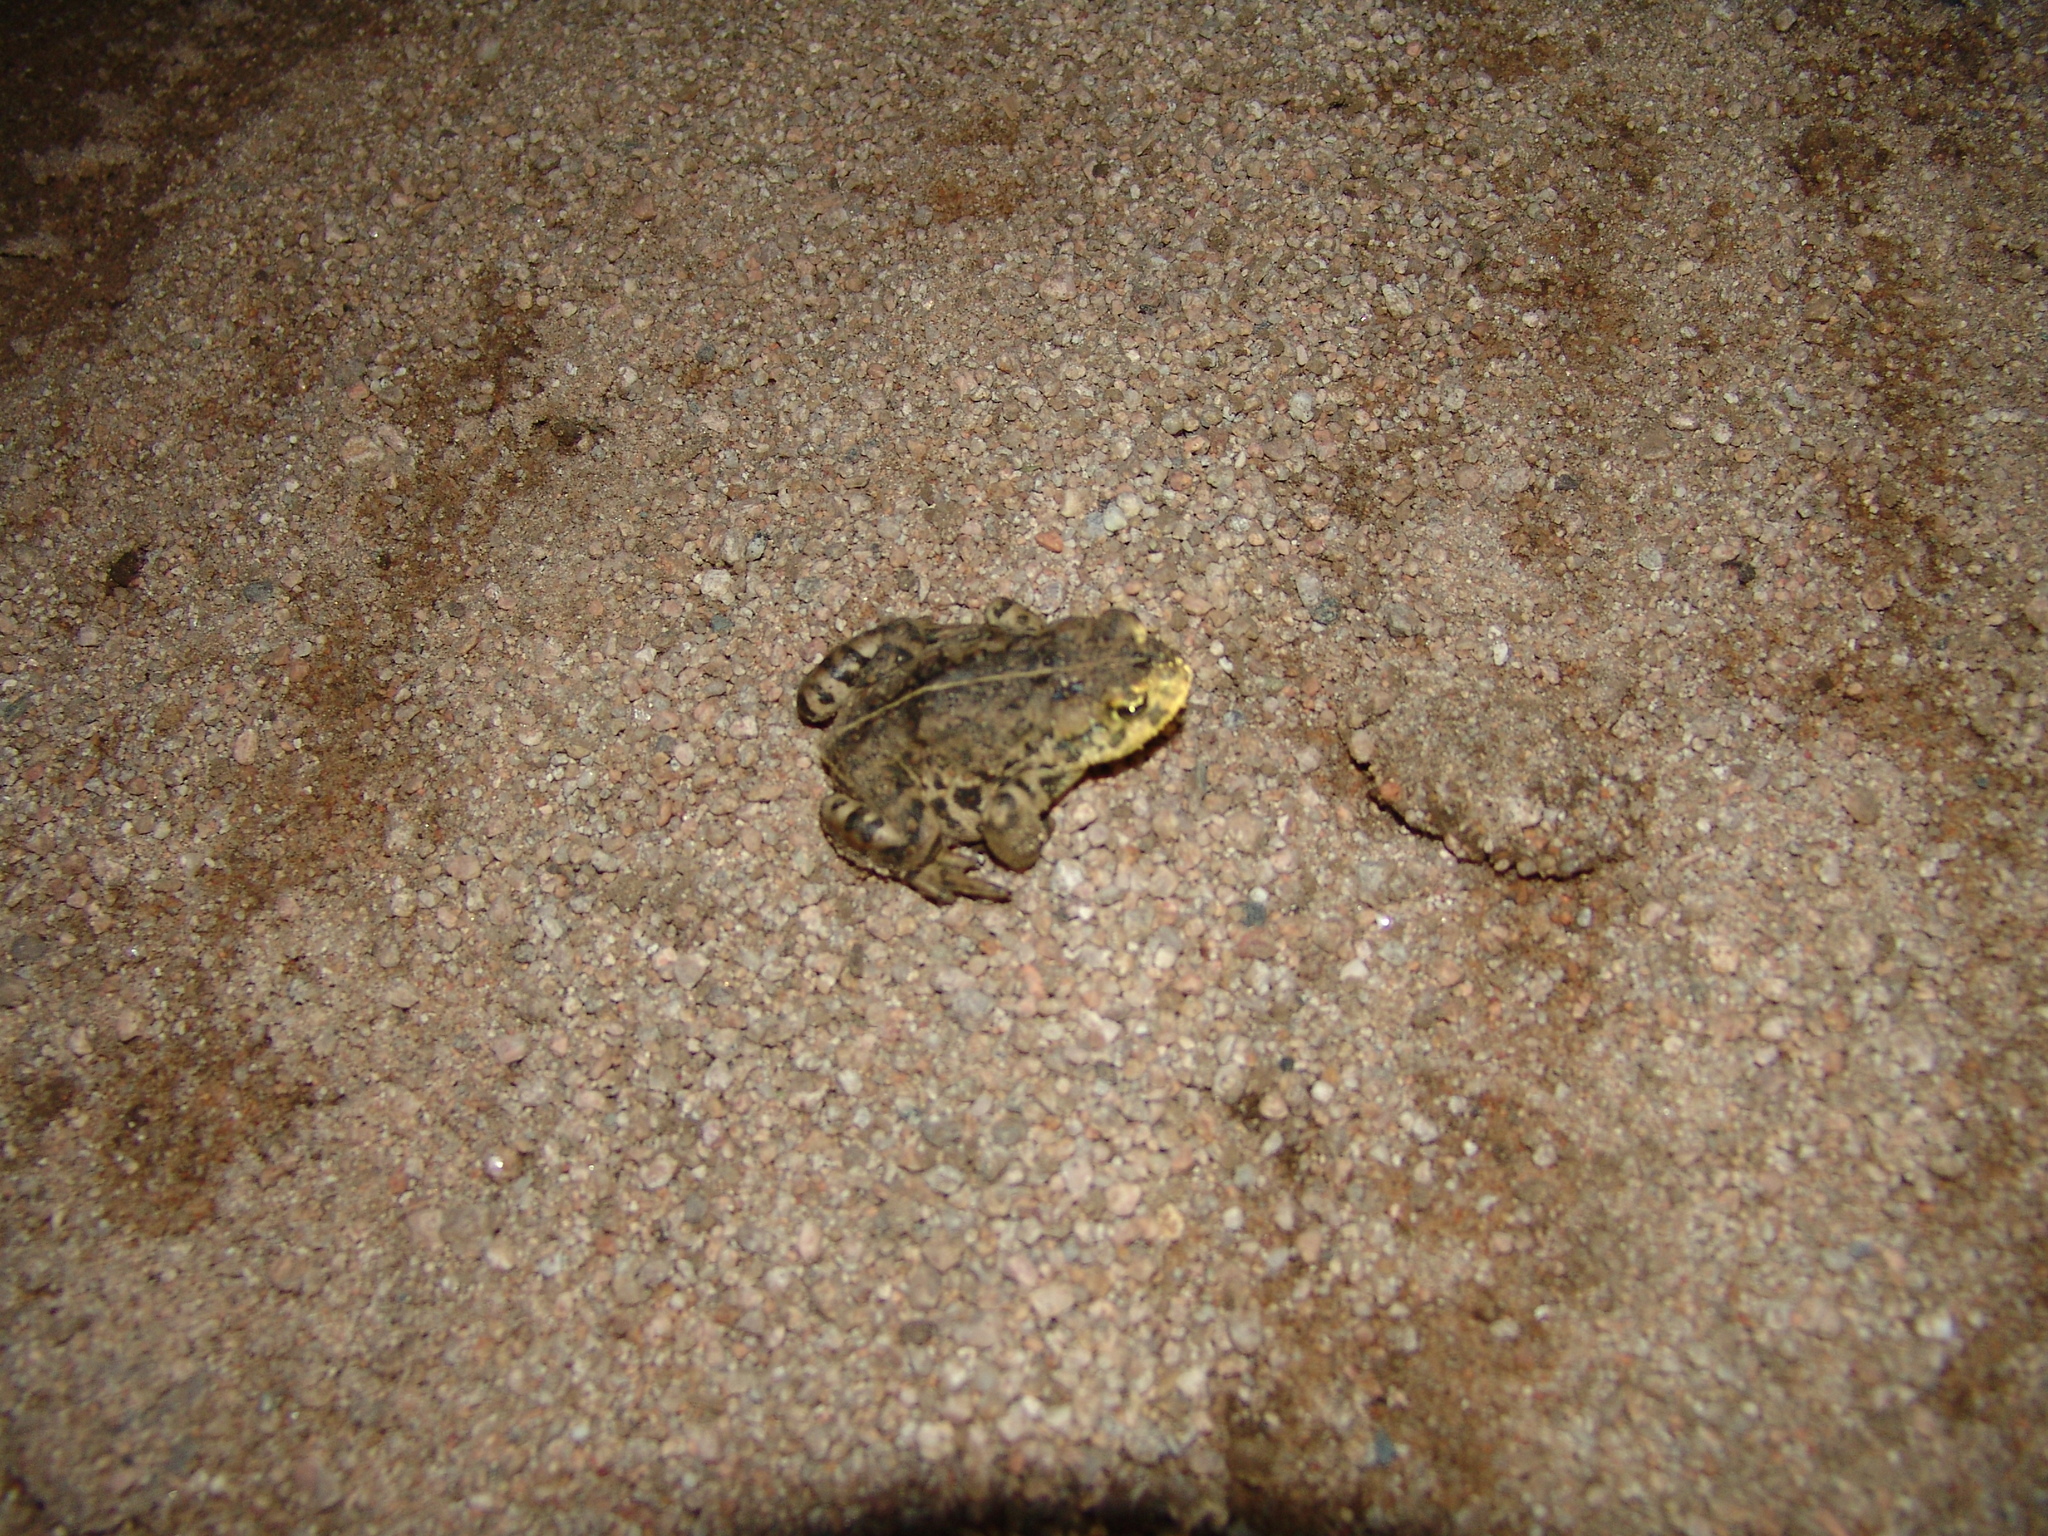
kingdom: Animalia
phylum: Chordata
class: Amphibia
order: Anura
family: Bufonidae
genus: Anaxyrus
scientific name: Anaxyrus boreas
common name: Western toad
